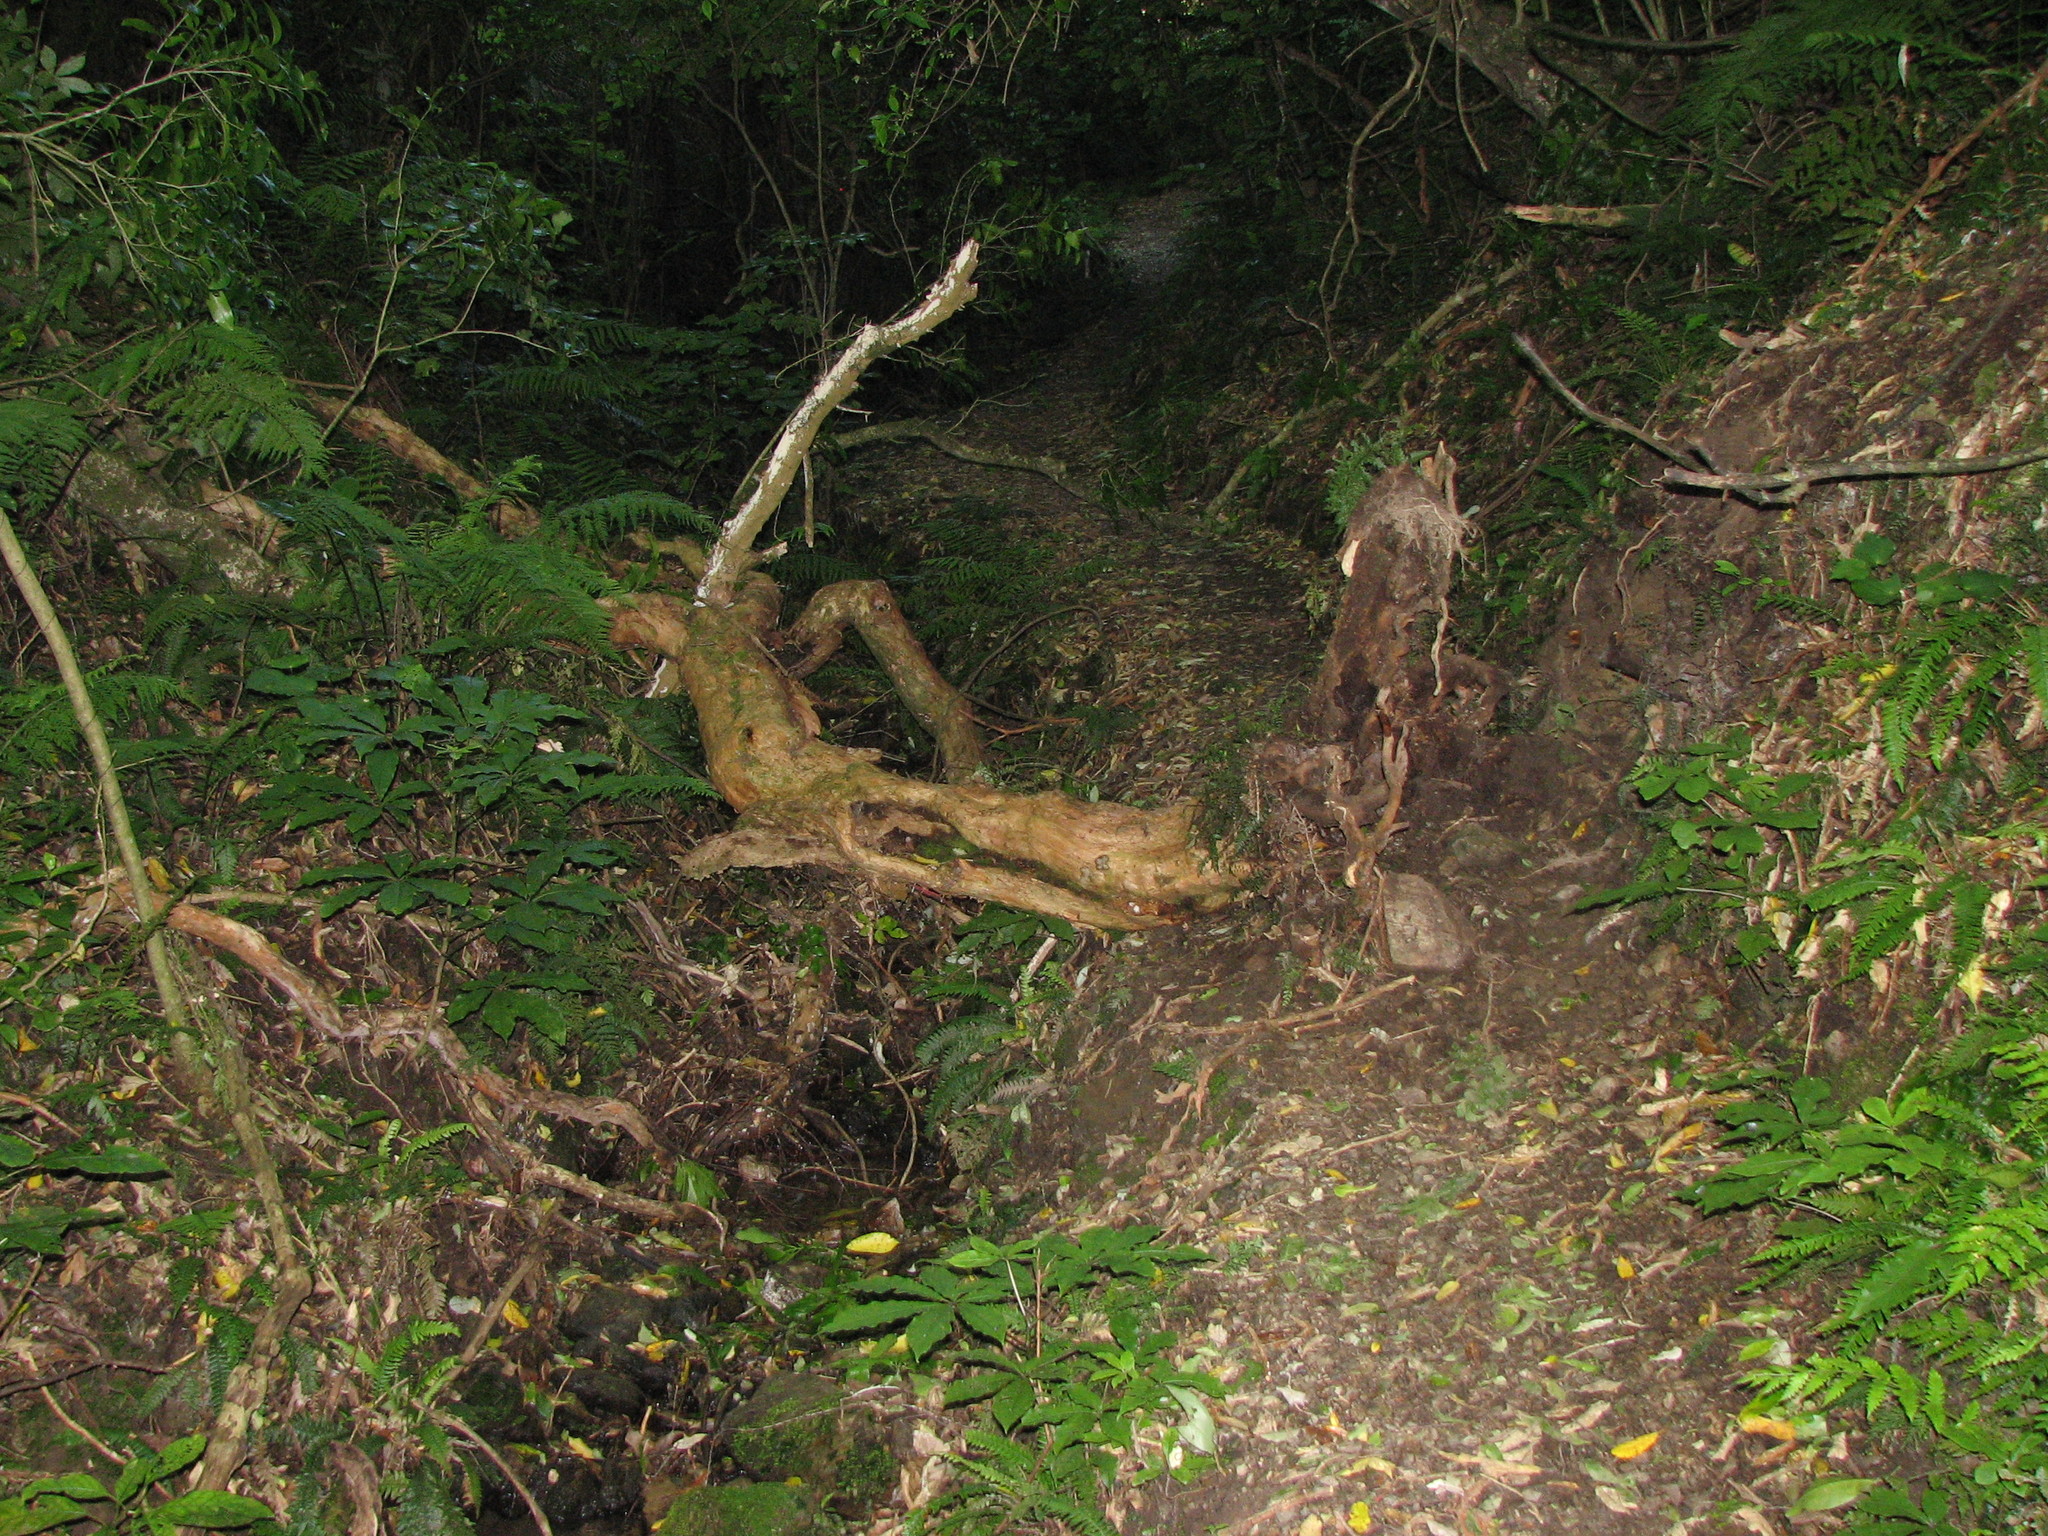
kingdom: Plantae
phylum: Tracheophyta
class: Magnoliopsida
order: Myrtales
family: Onagraceae
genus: Fuchsia
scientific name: Fuchsia excorticata
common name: Tree fuchsia
